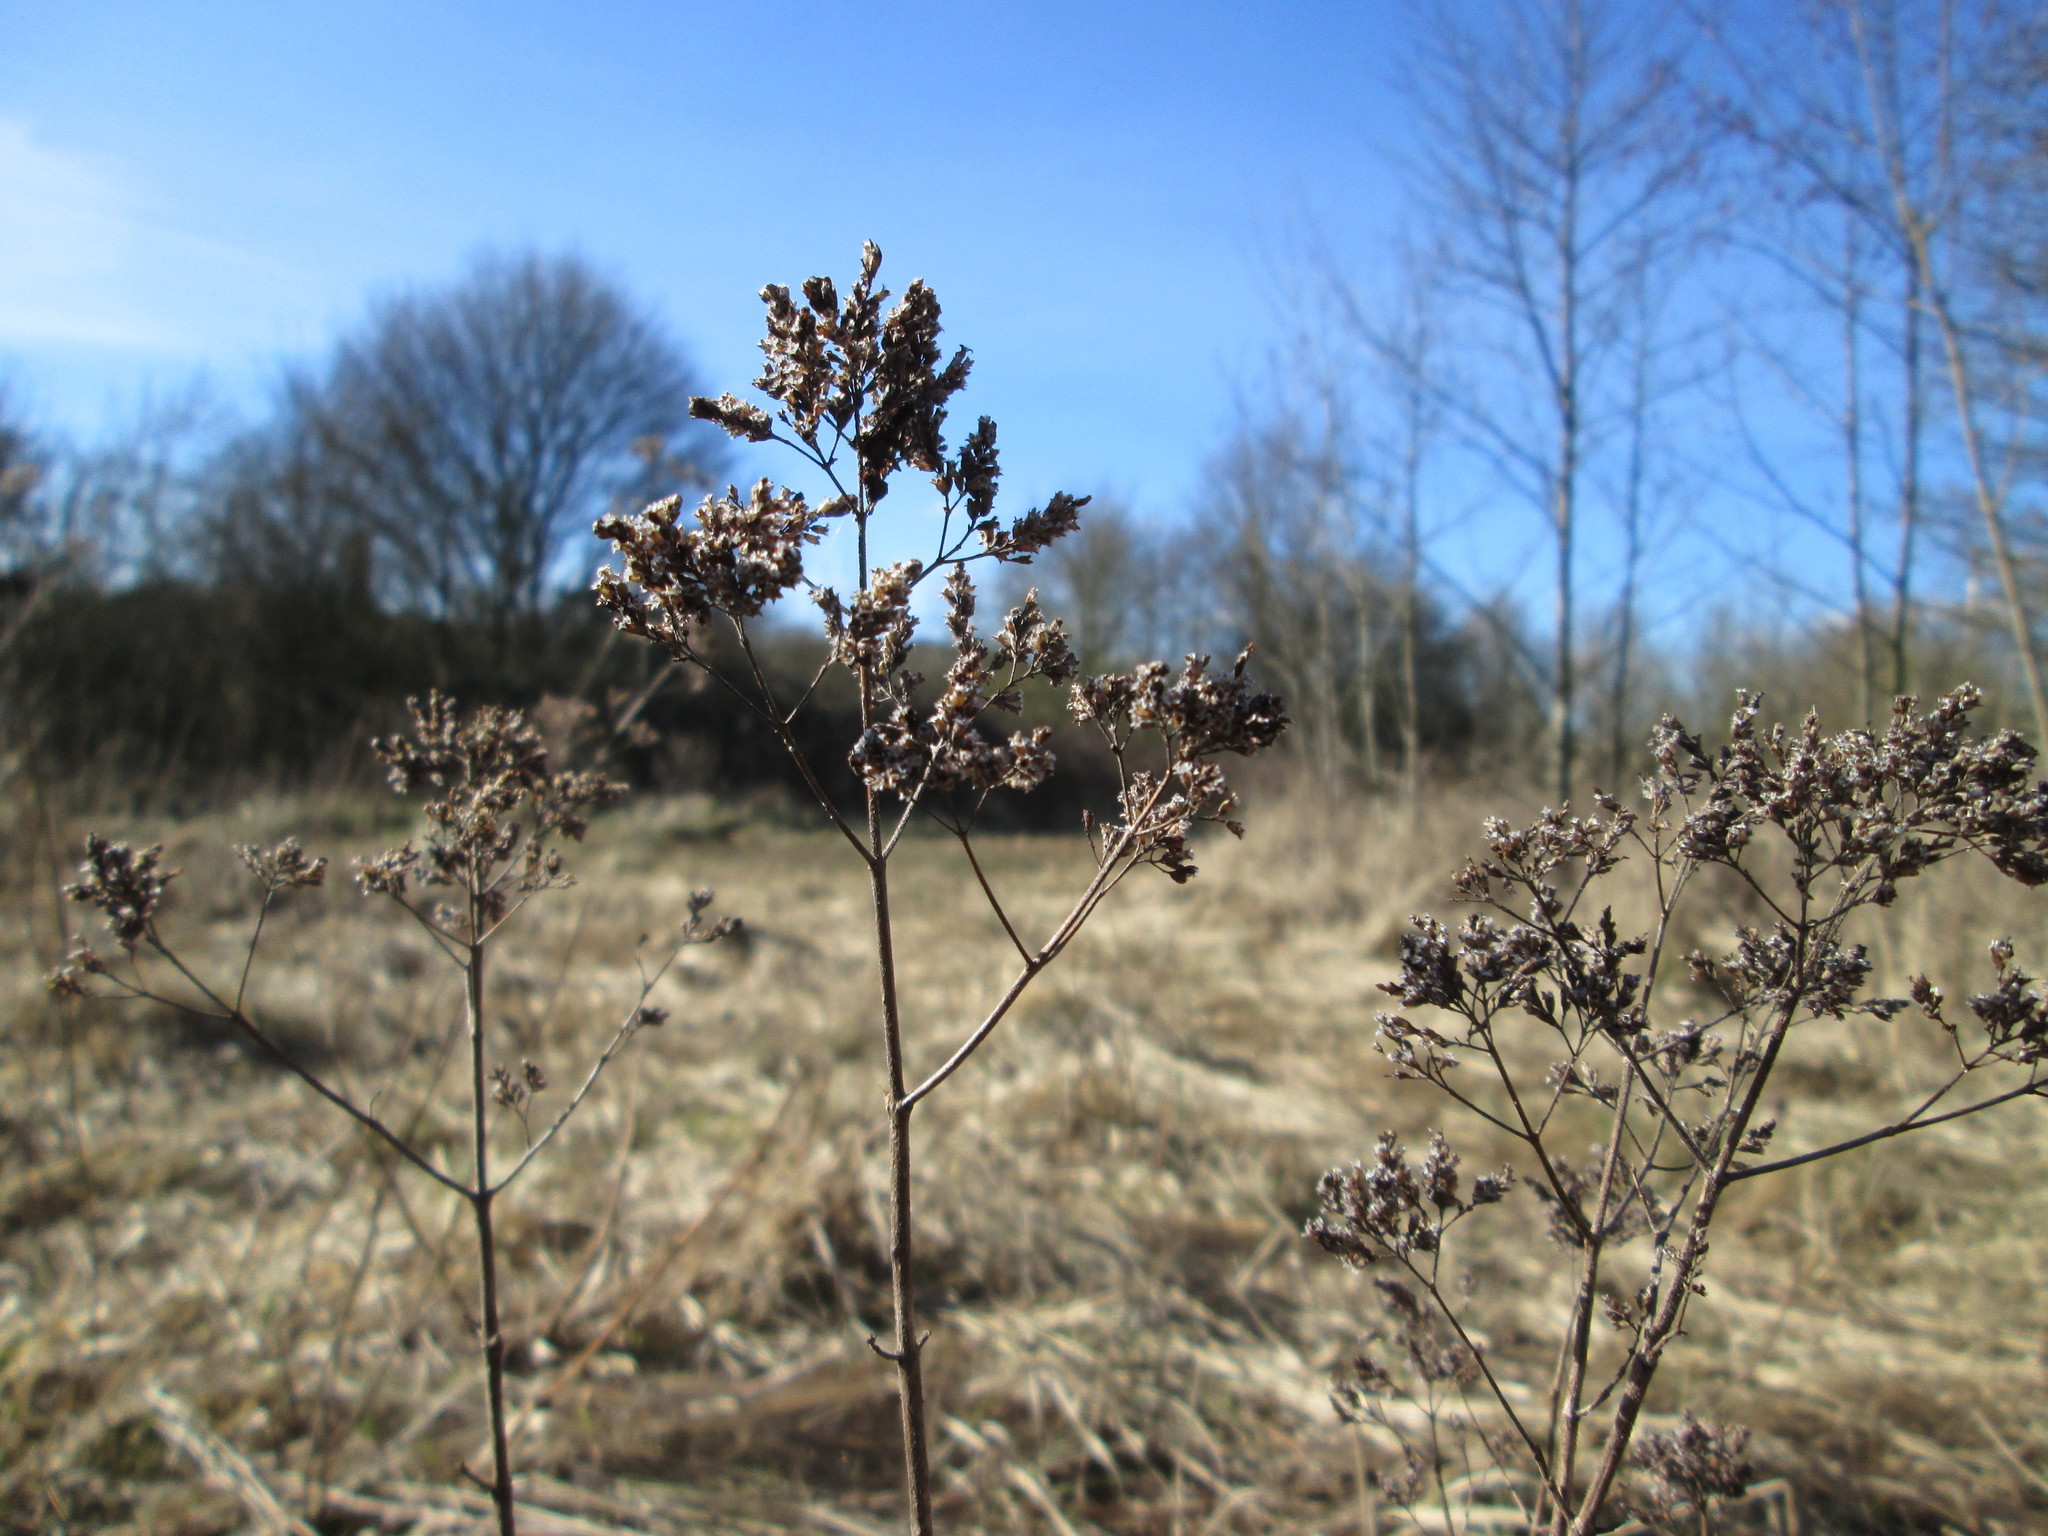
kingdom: Plantae
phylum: Tracheophyta
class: Magnoliopsida
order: Lamiales
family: Lamiaceae
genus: Origanum
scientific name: Origanum vulgare
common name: Wild marjoram
